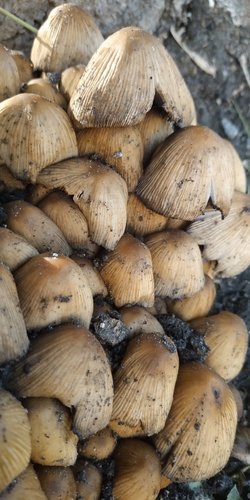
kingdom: Fungi
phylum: Basidiomycota
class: Agaricomycetes
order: Agaricales
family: Psathyrellaceae
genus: Coprinellus
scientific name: Coprinellus
